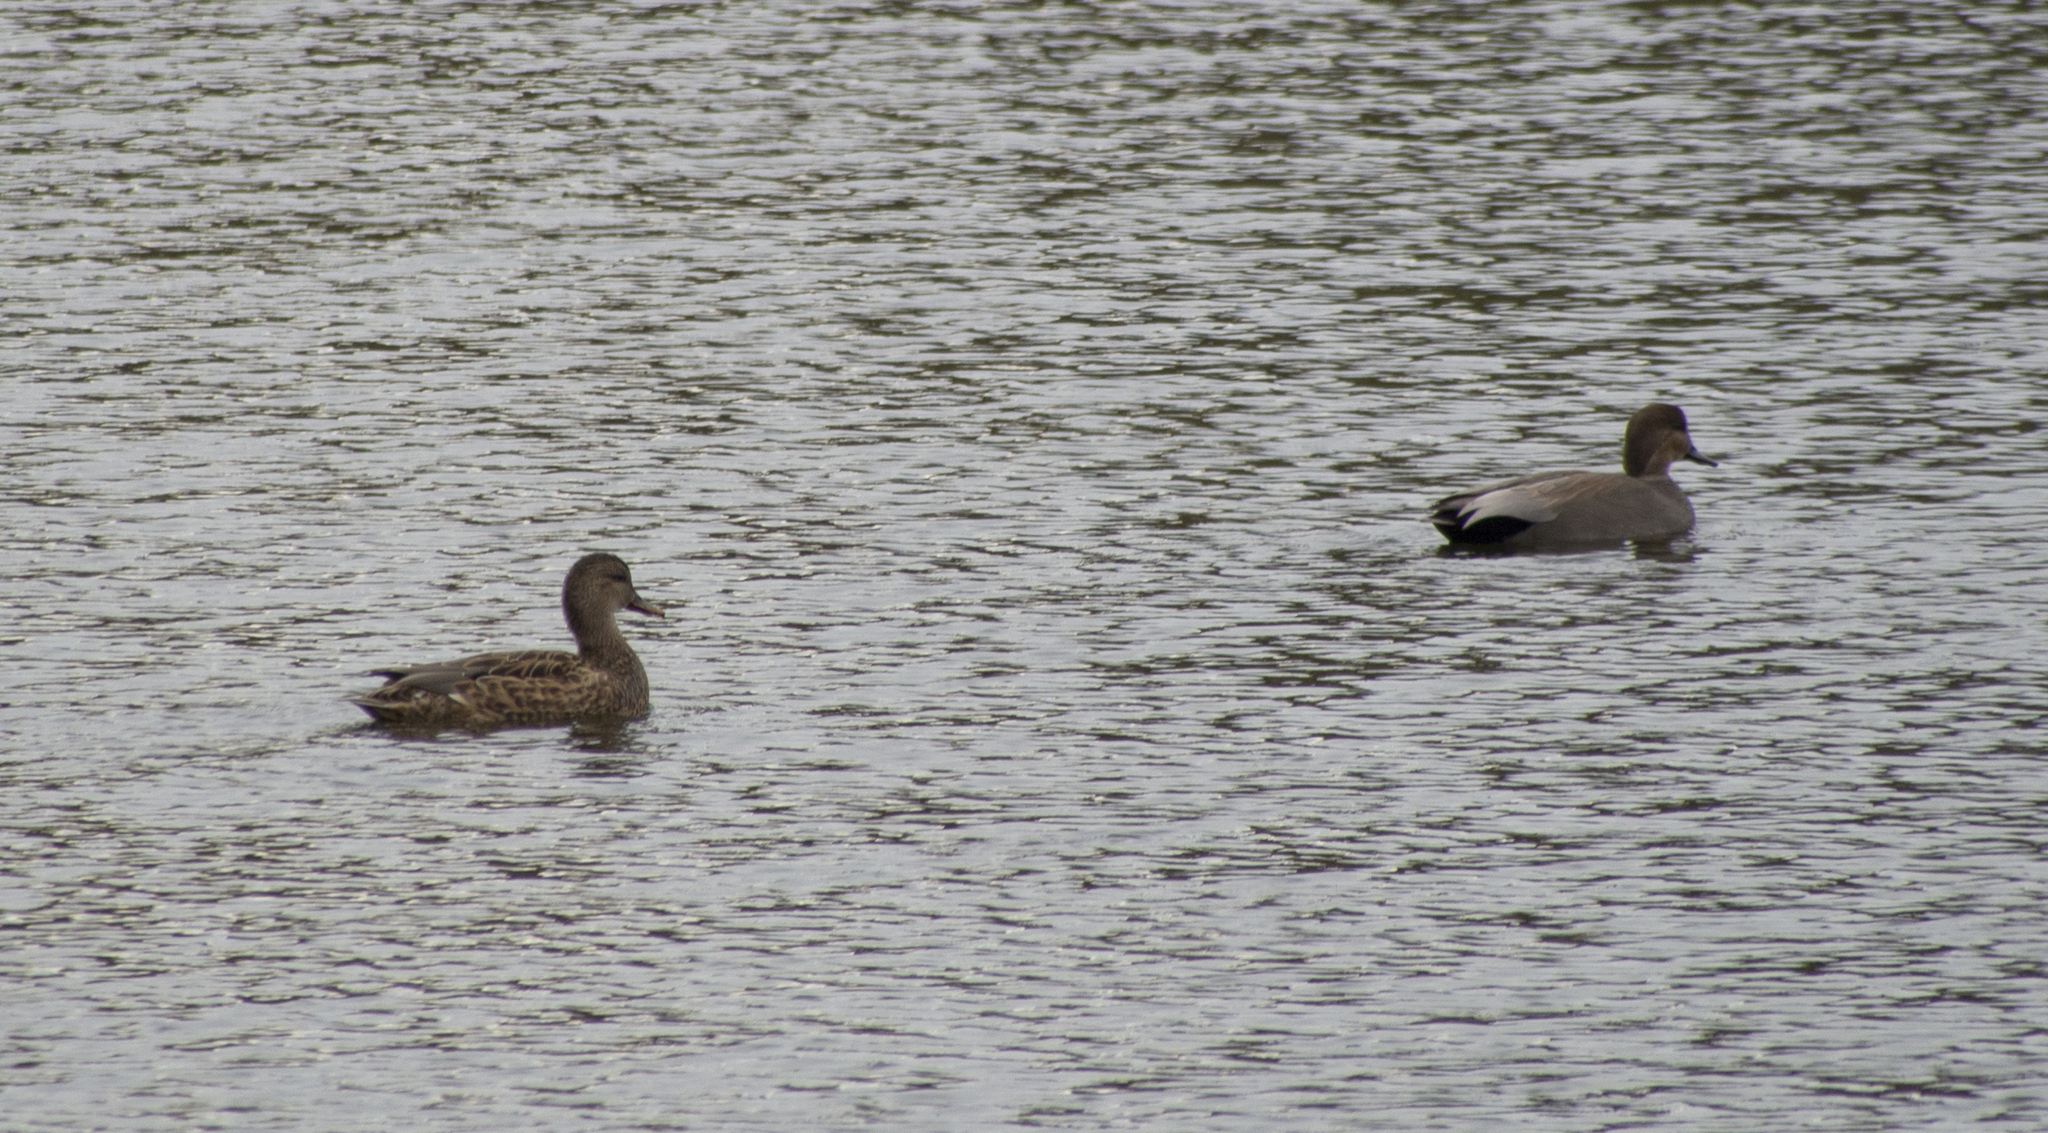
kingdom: Animalia
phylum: Chordata
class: Aves
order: Anseriformes
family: Anatidae
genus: Mareca
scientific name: Mareca strepera
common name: Gadwall
